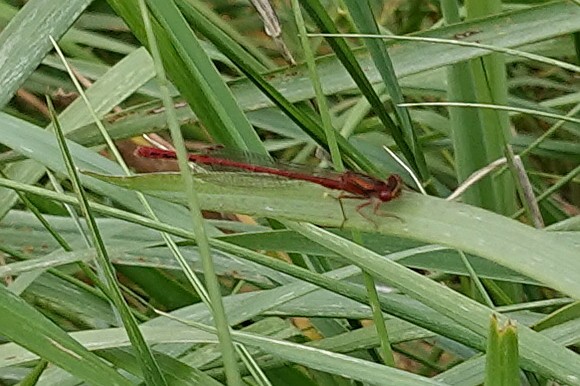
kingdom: Animalia
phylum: Arthropoda
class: Insecta
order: Odonata
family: Coenagrionidae
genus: Xanthocnemis
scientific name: Xanthocnemis zealandica
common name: Common redcoat damselfly
